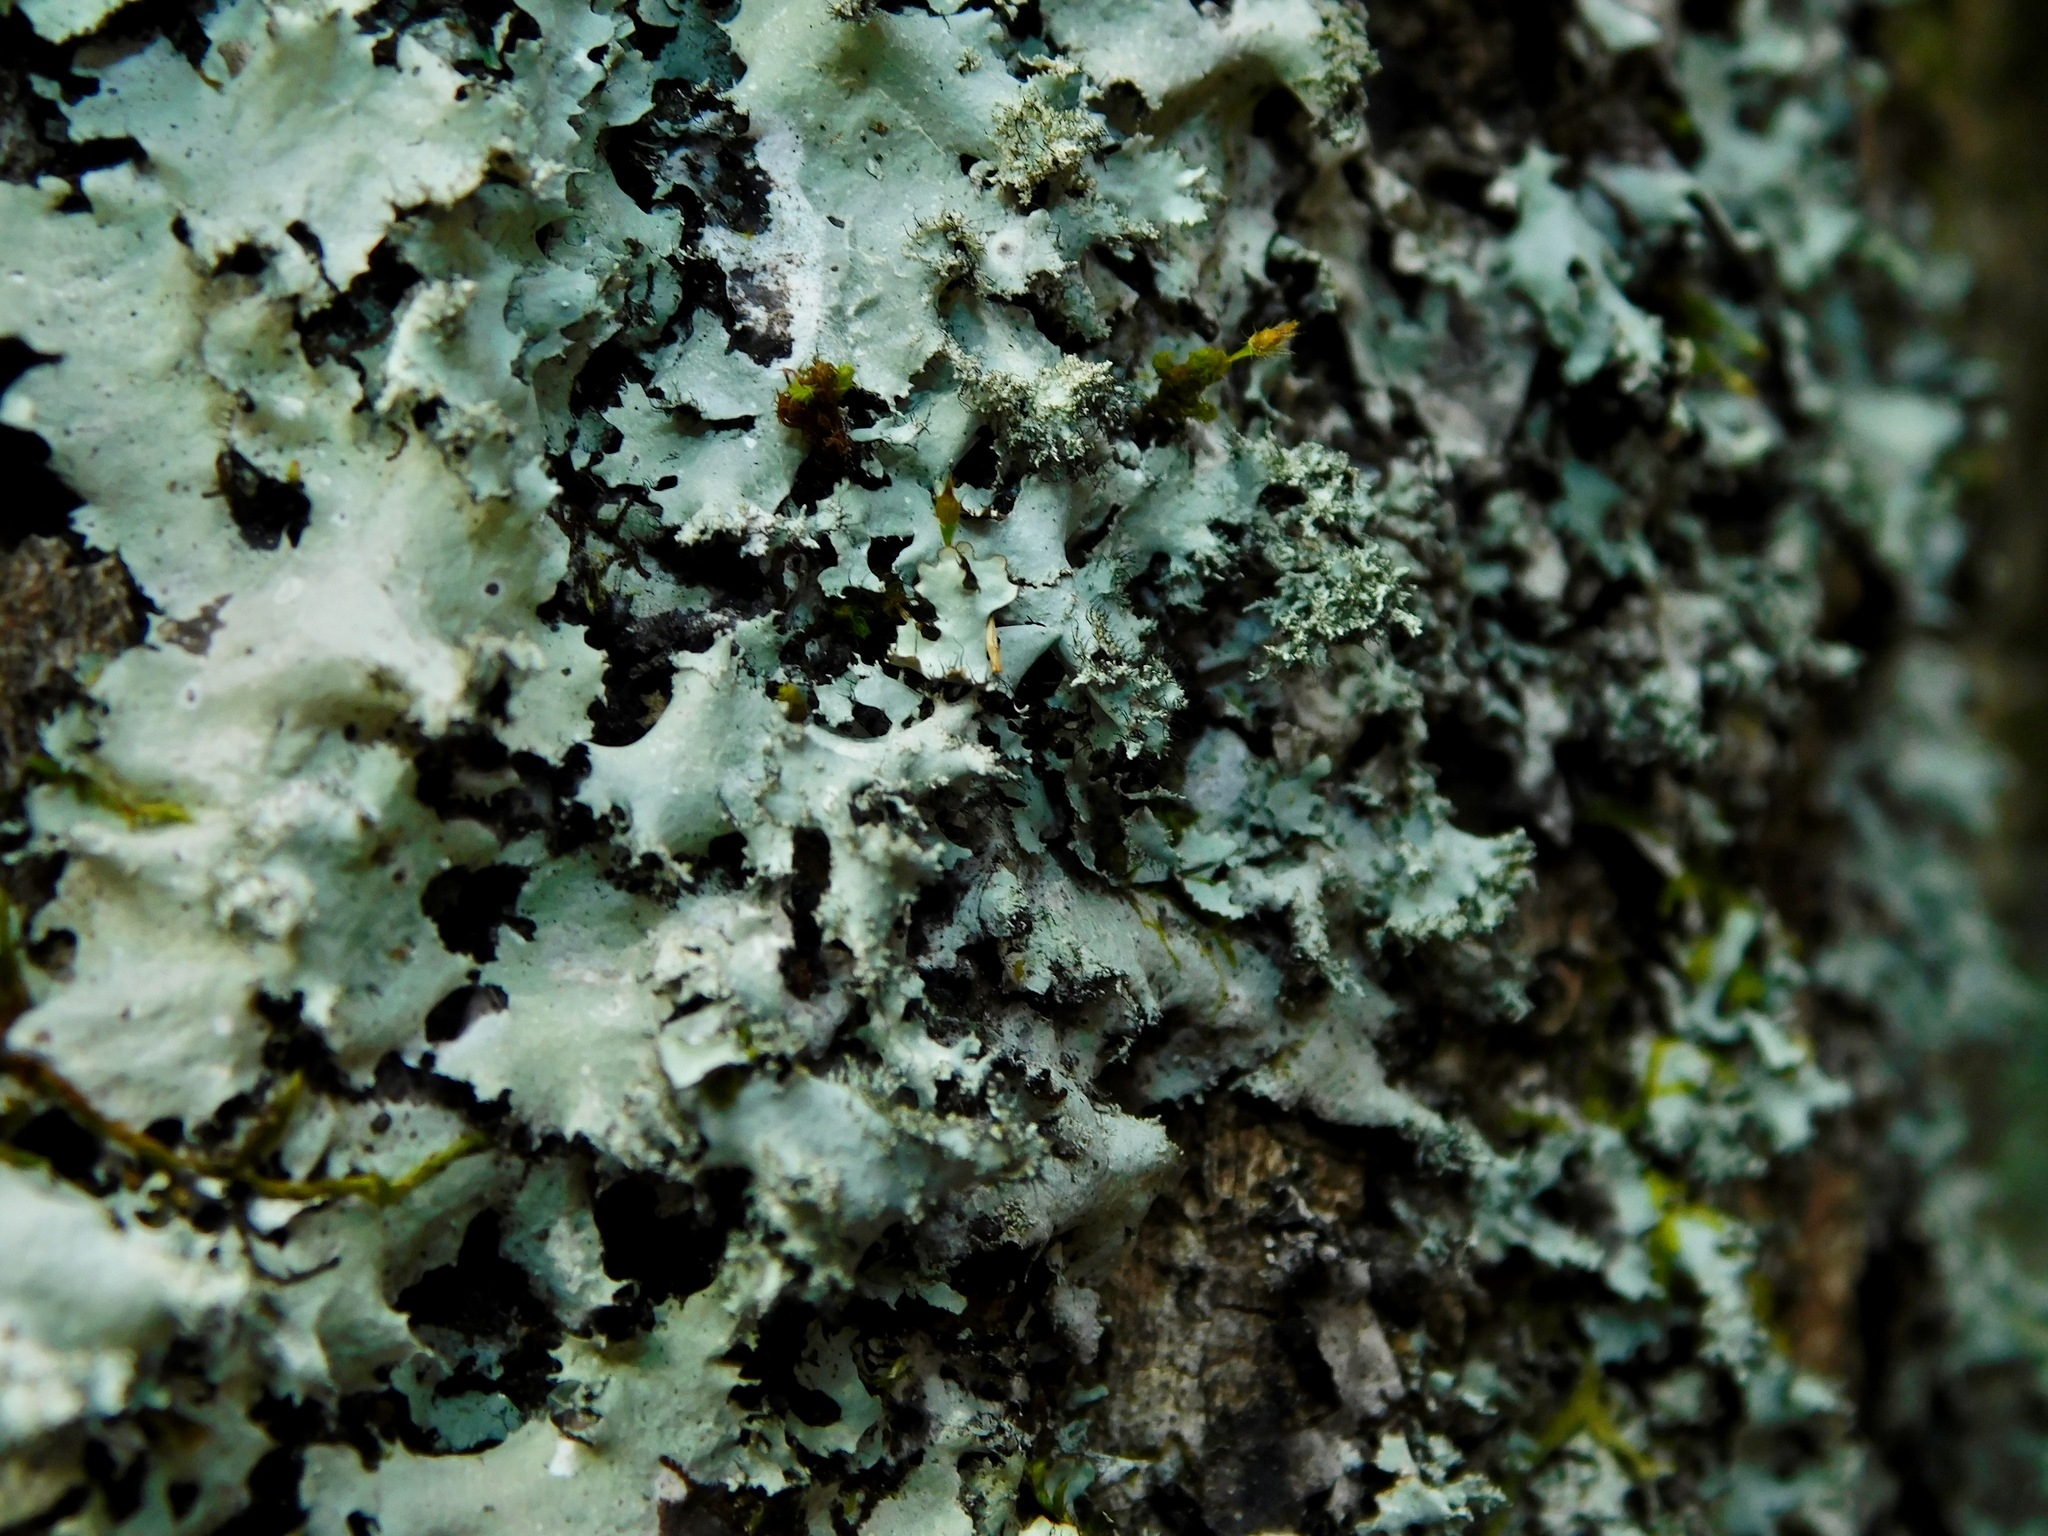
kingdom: Fungi
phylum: Ascomycota
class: Lecanoromycetes
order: Lecanorales
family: Parmeliaceae
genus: Hypotrachyna
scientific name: Hypotrachyna horrescens
